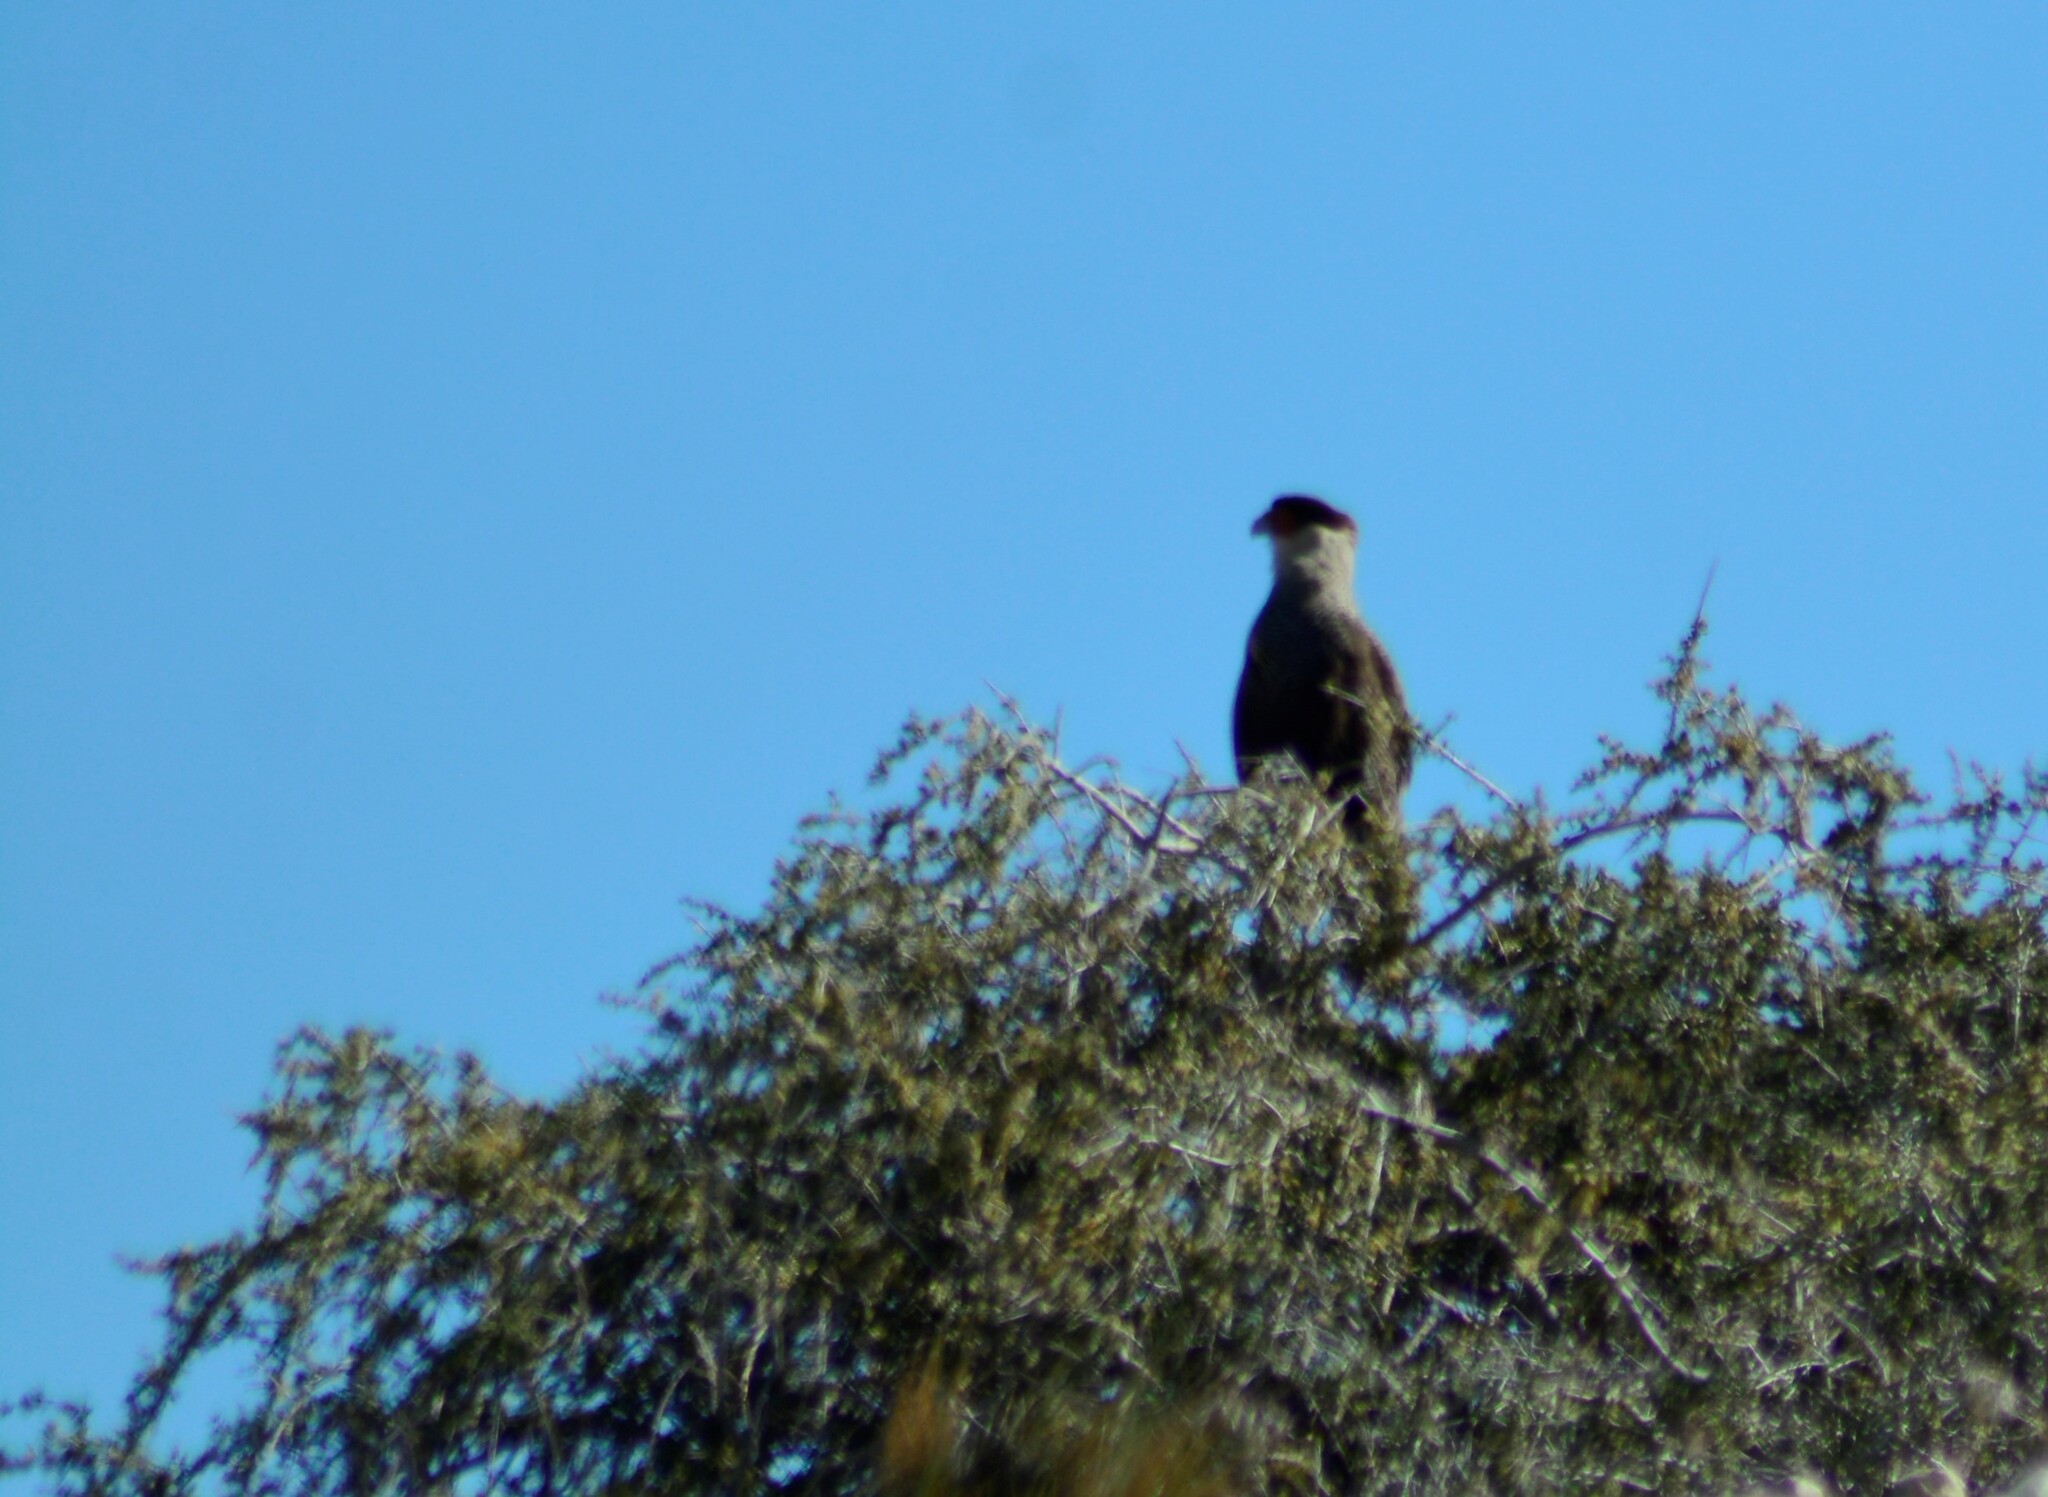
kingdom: Animalia
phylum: Chordata
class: Aves
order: Falconiformes
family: Falconidae
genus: Caracara
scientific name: Caracara plancus
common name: Southern caracara
